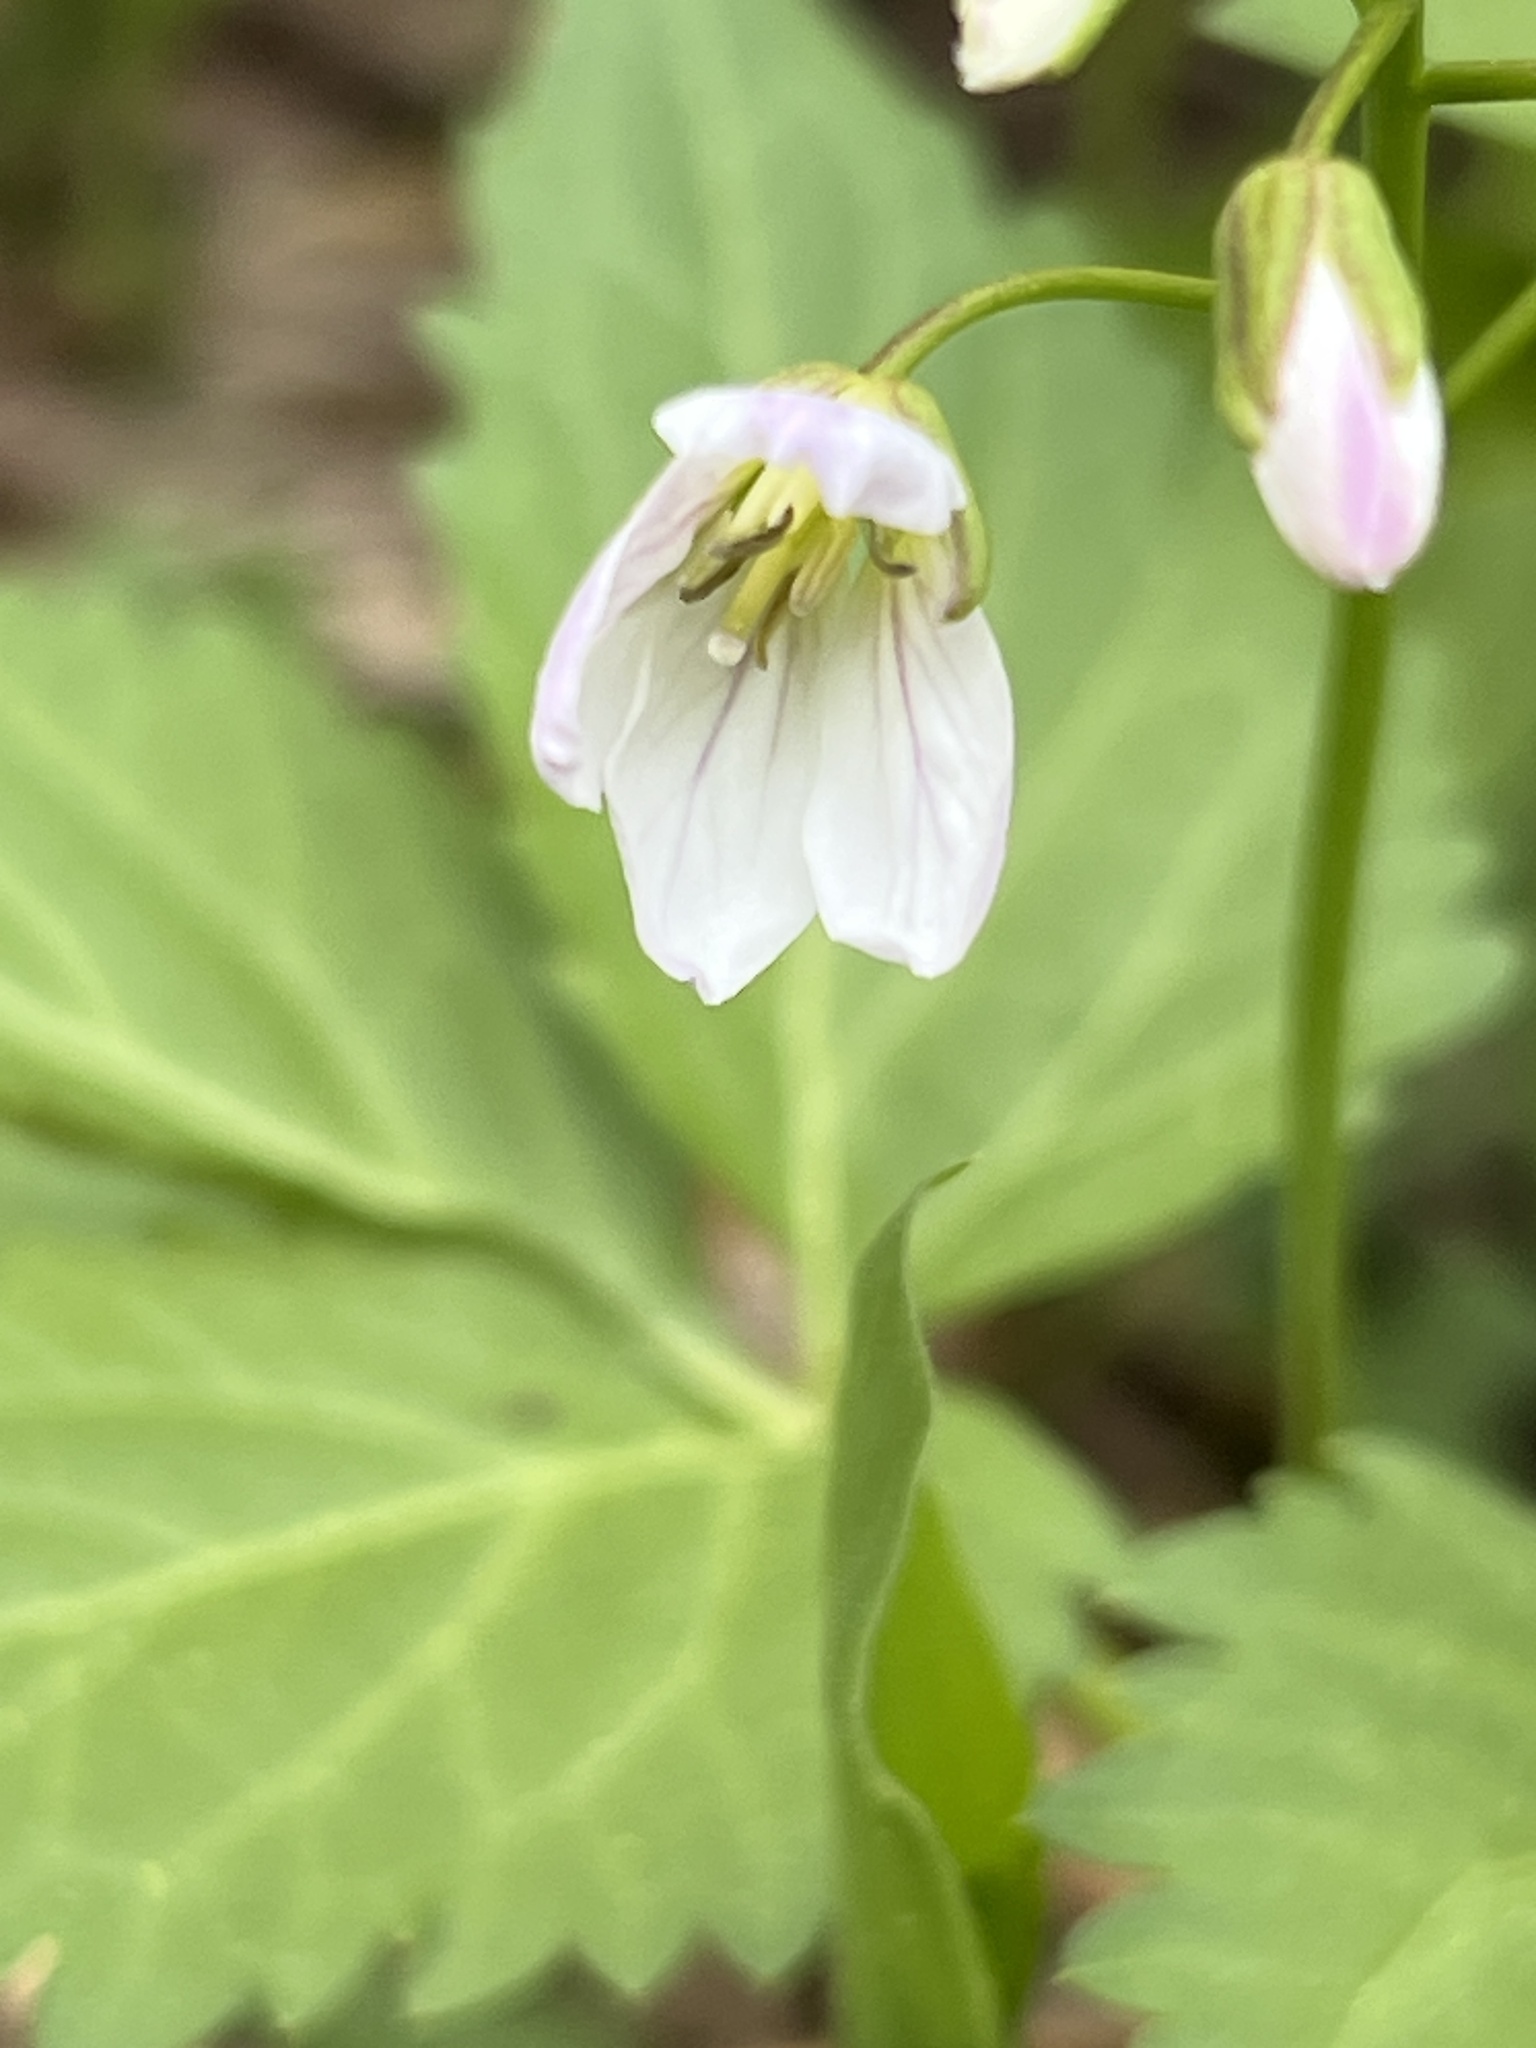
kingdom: Plantae
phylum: Tracheophyta
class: Magnoliopsida
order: Brassicales
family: Brassicaceae
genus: Cardamine
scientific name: Cardamine diphylla
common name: Broad-leaved toothwort
